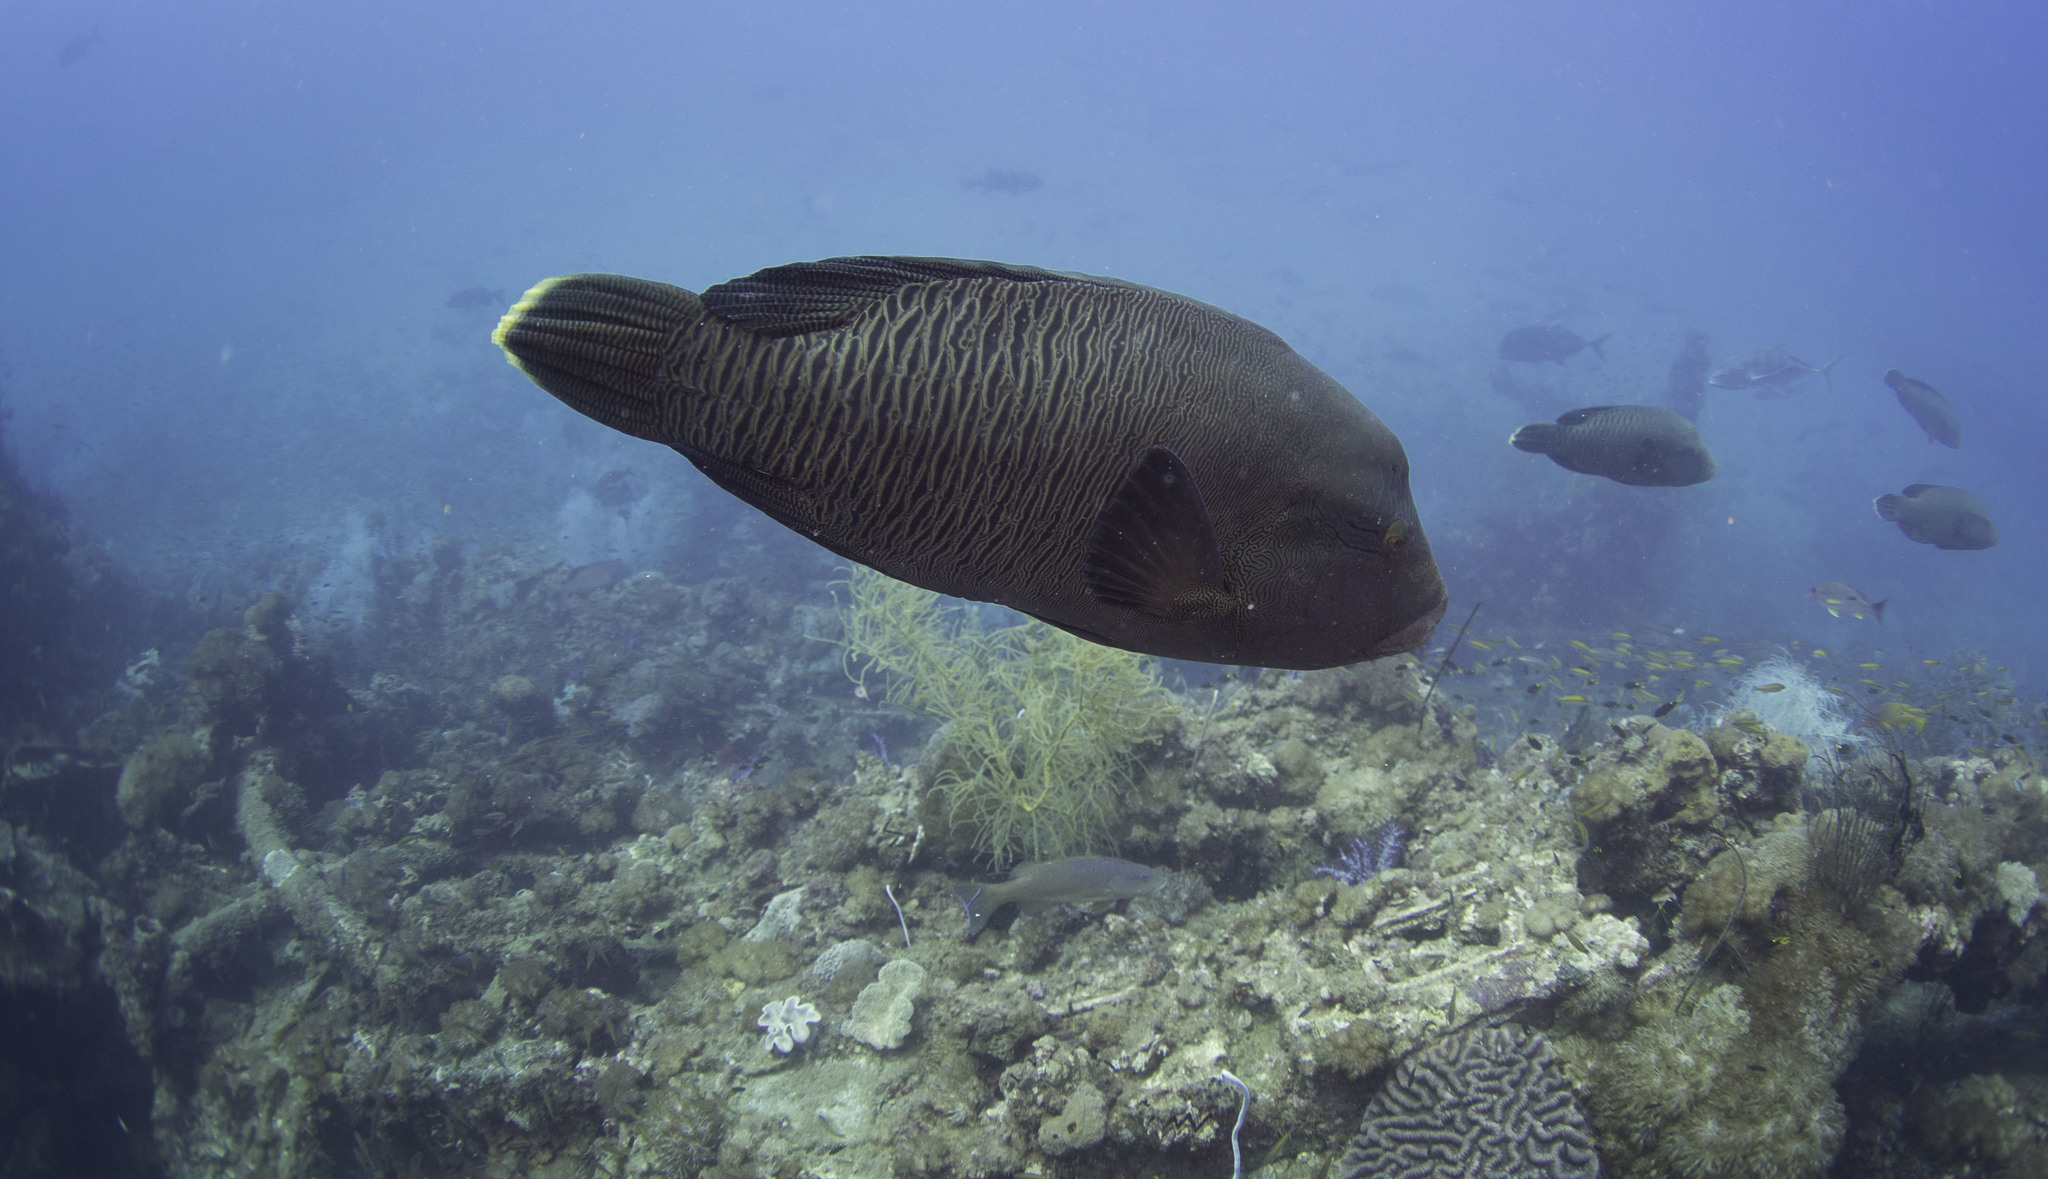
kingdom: Animalia
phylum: Chordata
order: Perciformes
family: Labridae
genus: Cheilinus
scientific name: Cheilinus undulatus
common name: Humphead wrasse
